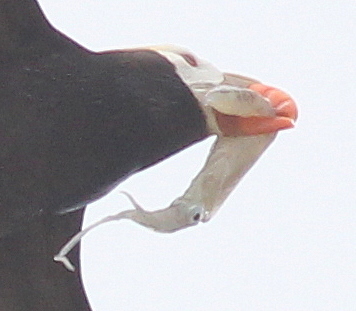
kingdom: Animalia
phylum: Mollusca
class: Cephalopoda
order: Myopsida
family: Loliginidae
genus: Doryteuthis
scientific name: Doryteuthis opalescens
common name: Opalescent inshore squid
